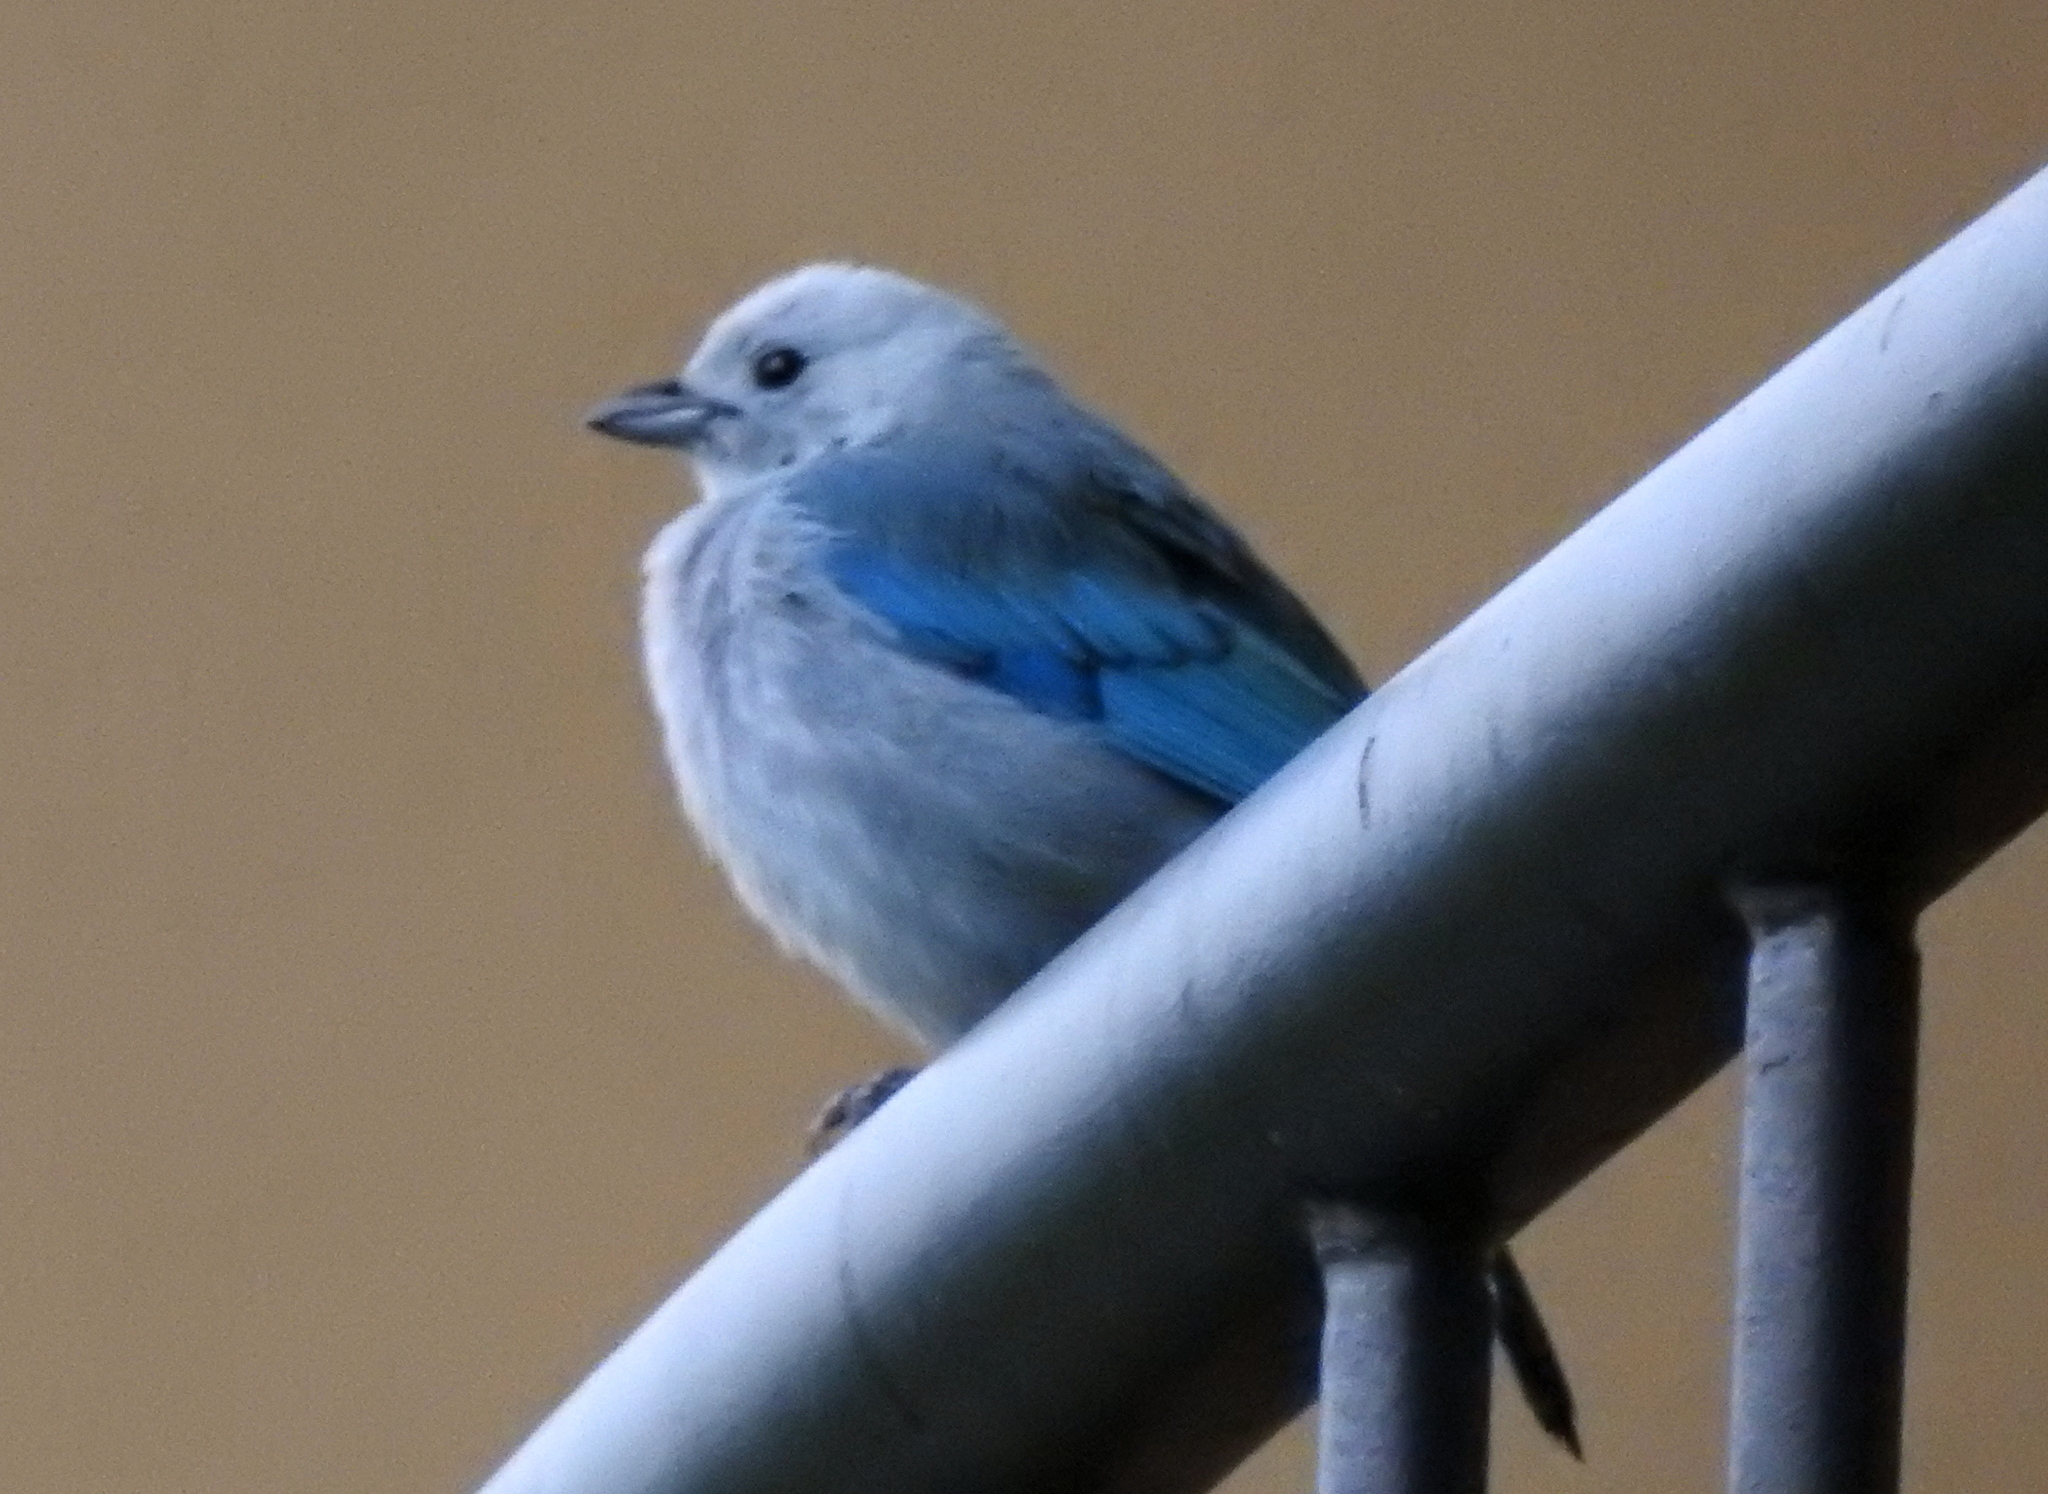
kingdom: Animalia
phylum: Chordata
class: Aves
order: Passeriformes
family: Thraupidae
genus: Thraupis
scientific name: Thraupis episcopus
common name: Blue-grey tanager
